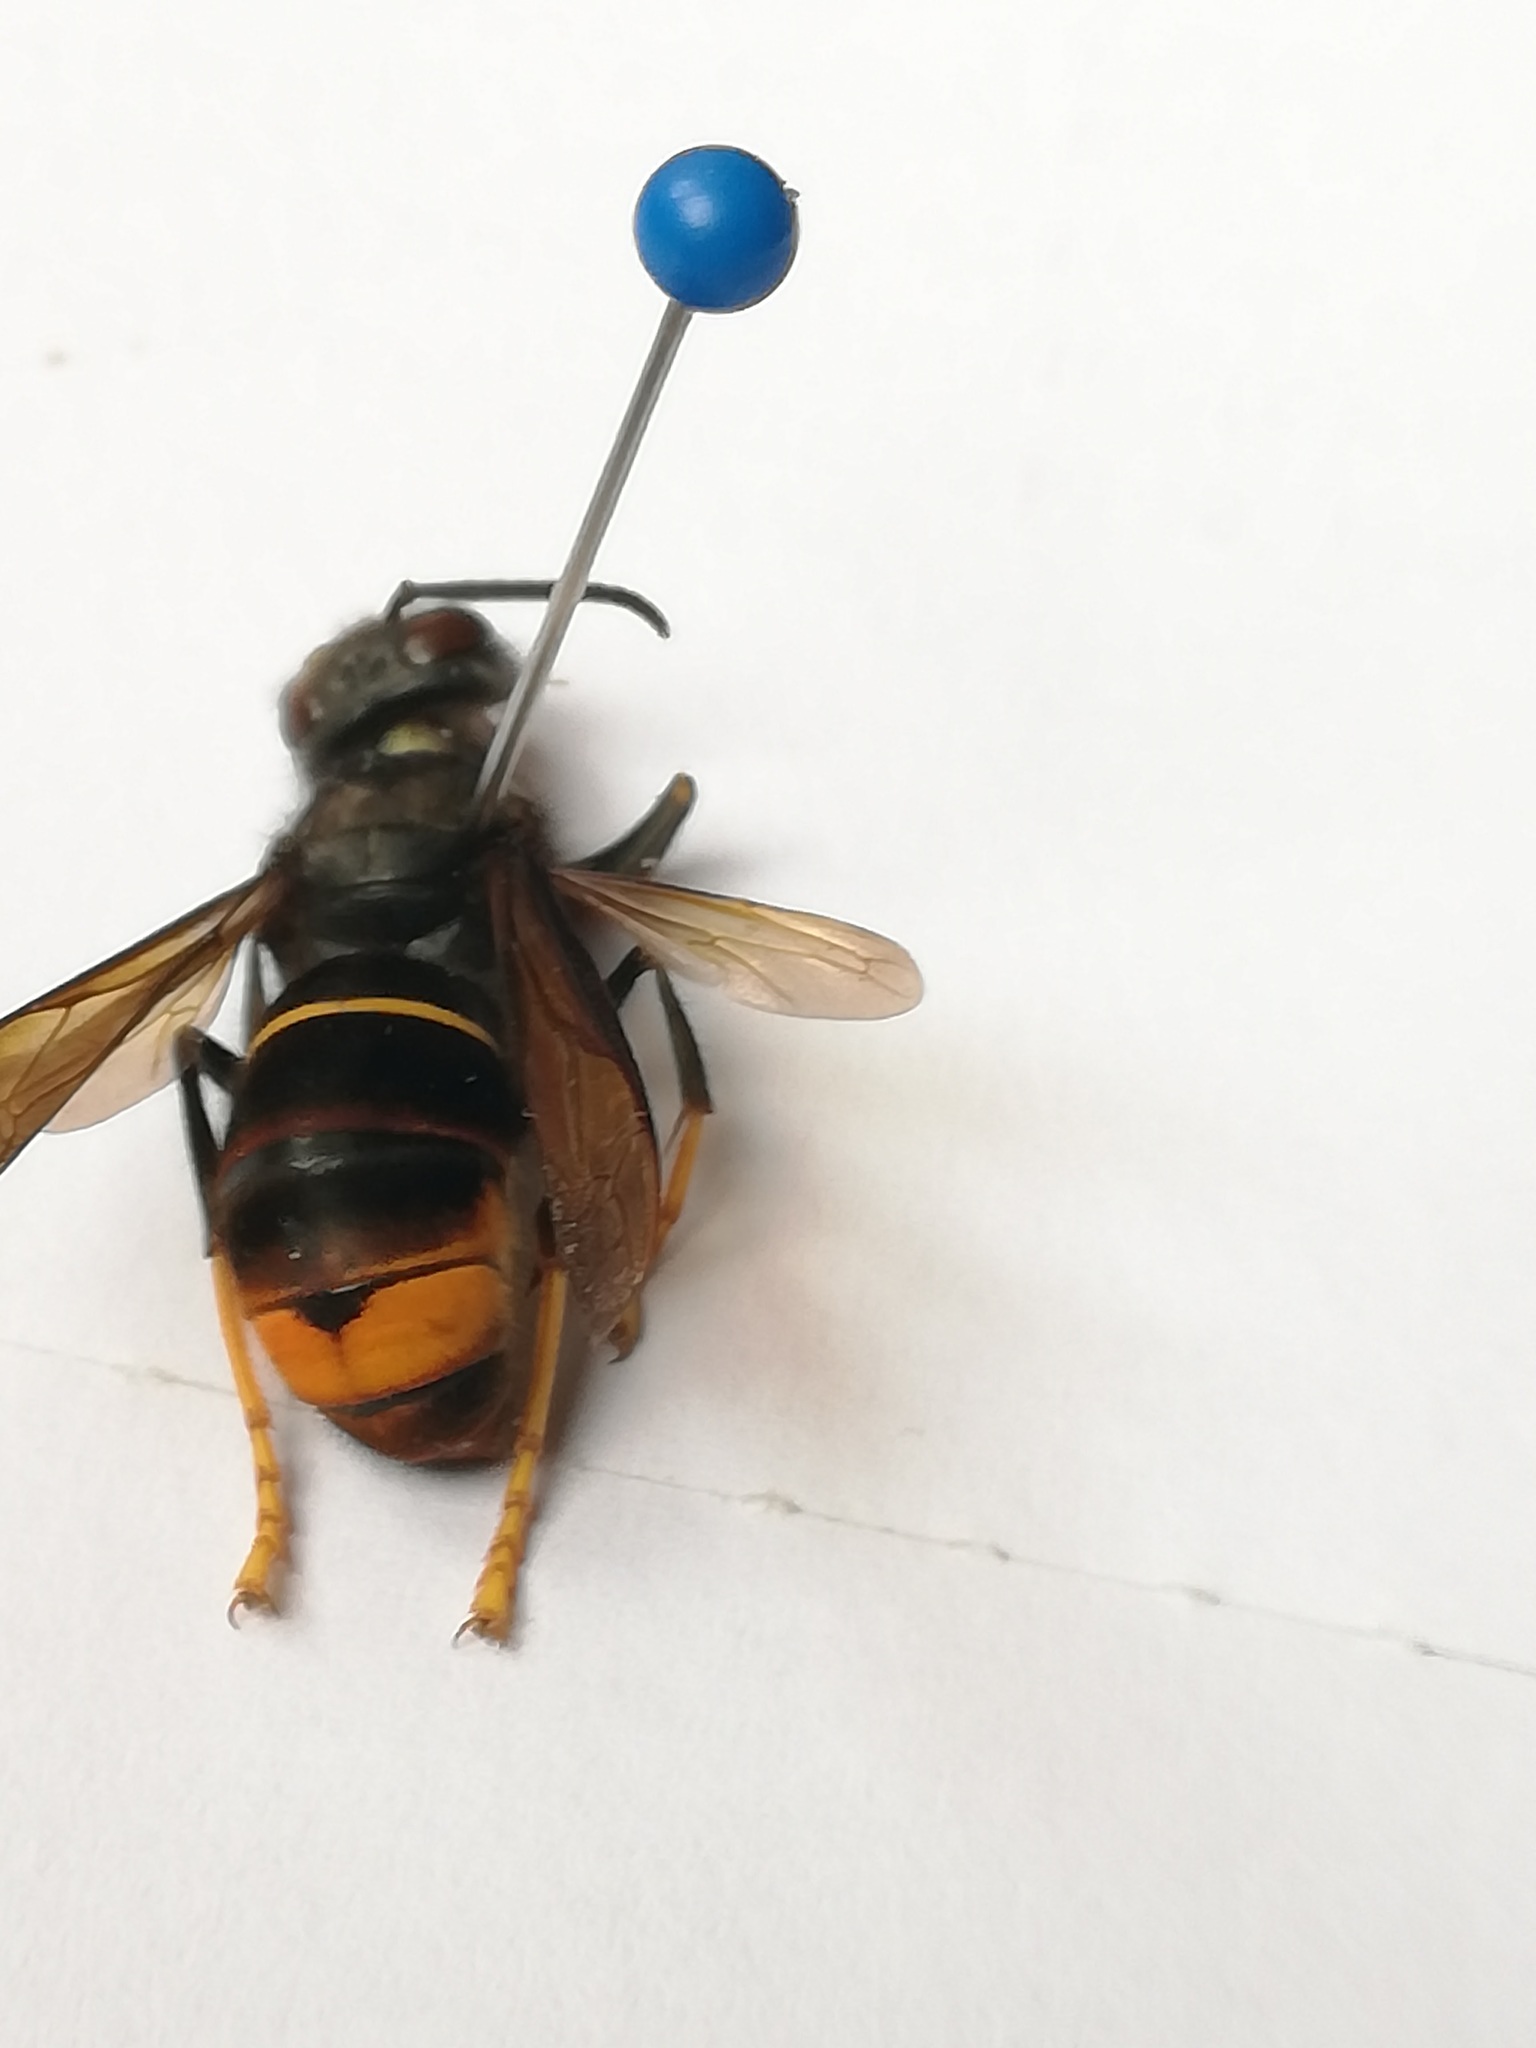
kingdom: Animalia
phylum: Arthropoda
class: Insecta
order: Hymenoptera
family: Vespidae
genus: Vespa
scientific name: Vespa velutina
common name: Asian hornet
